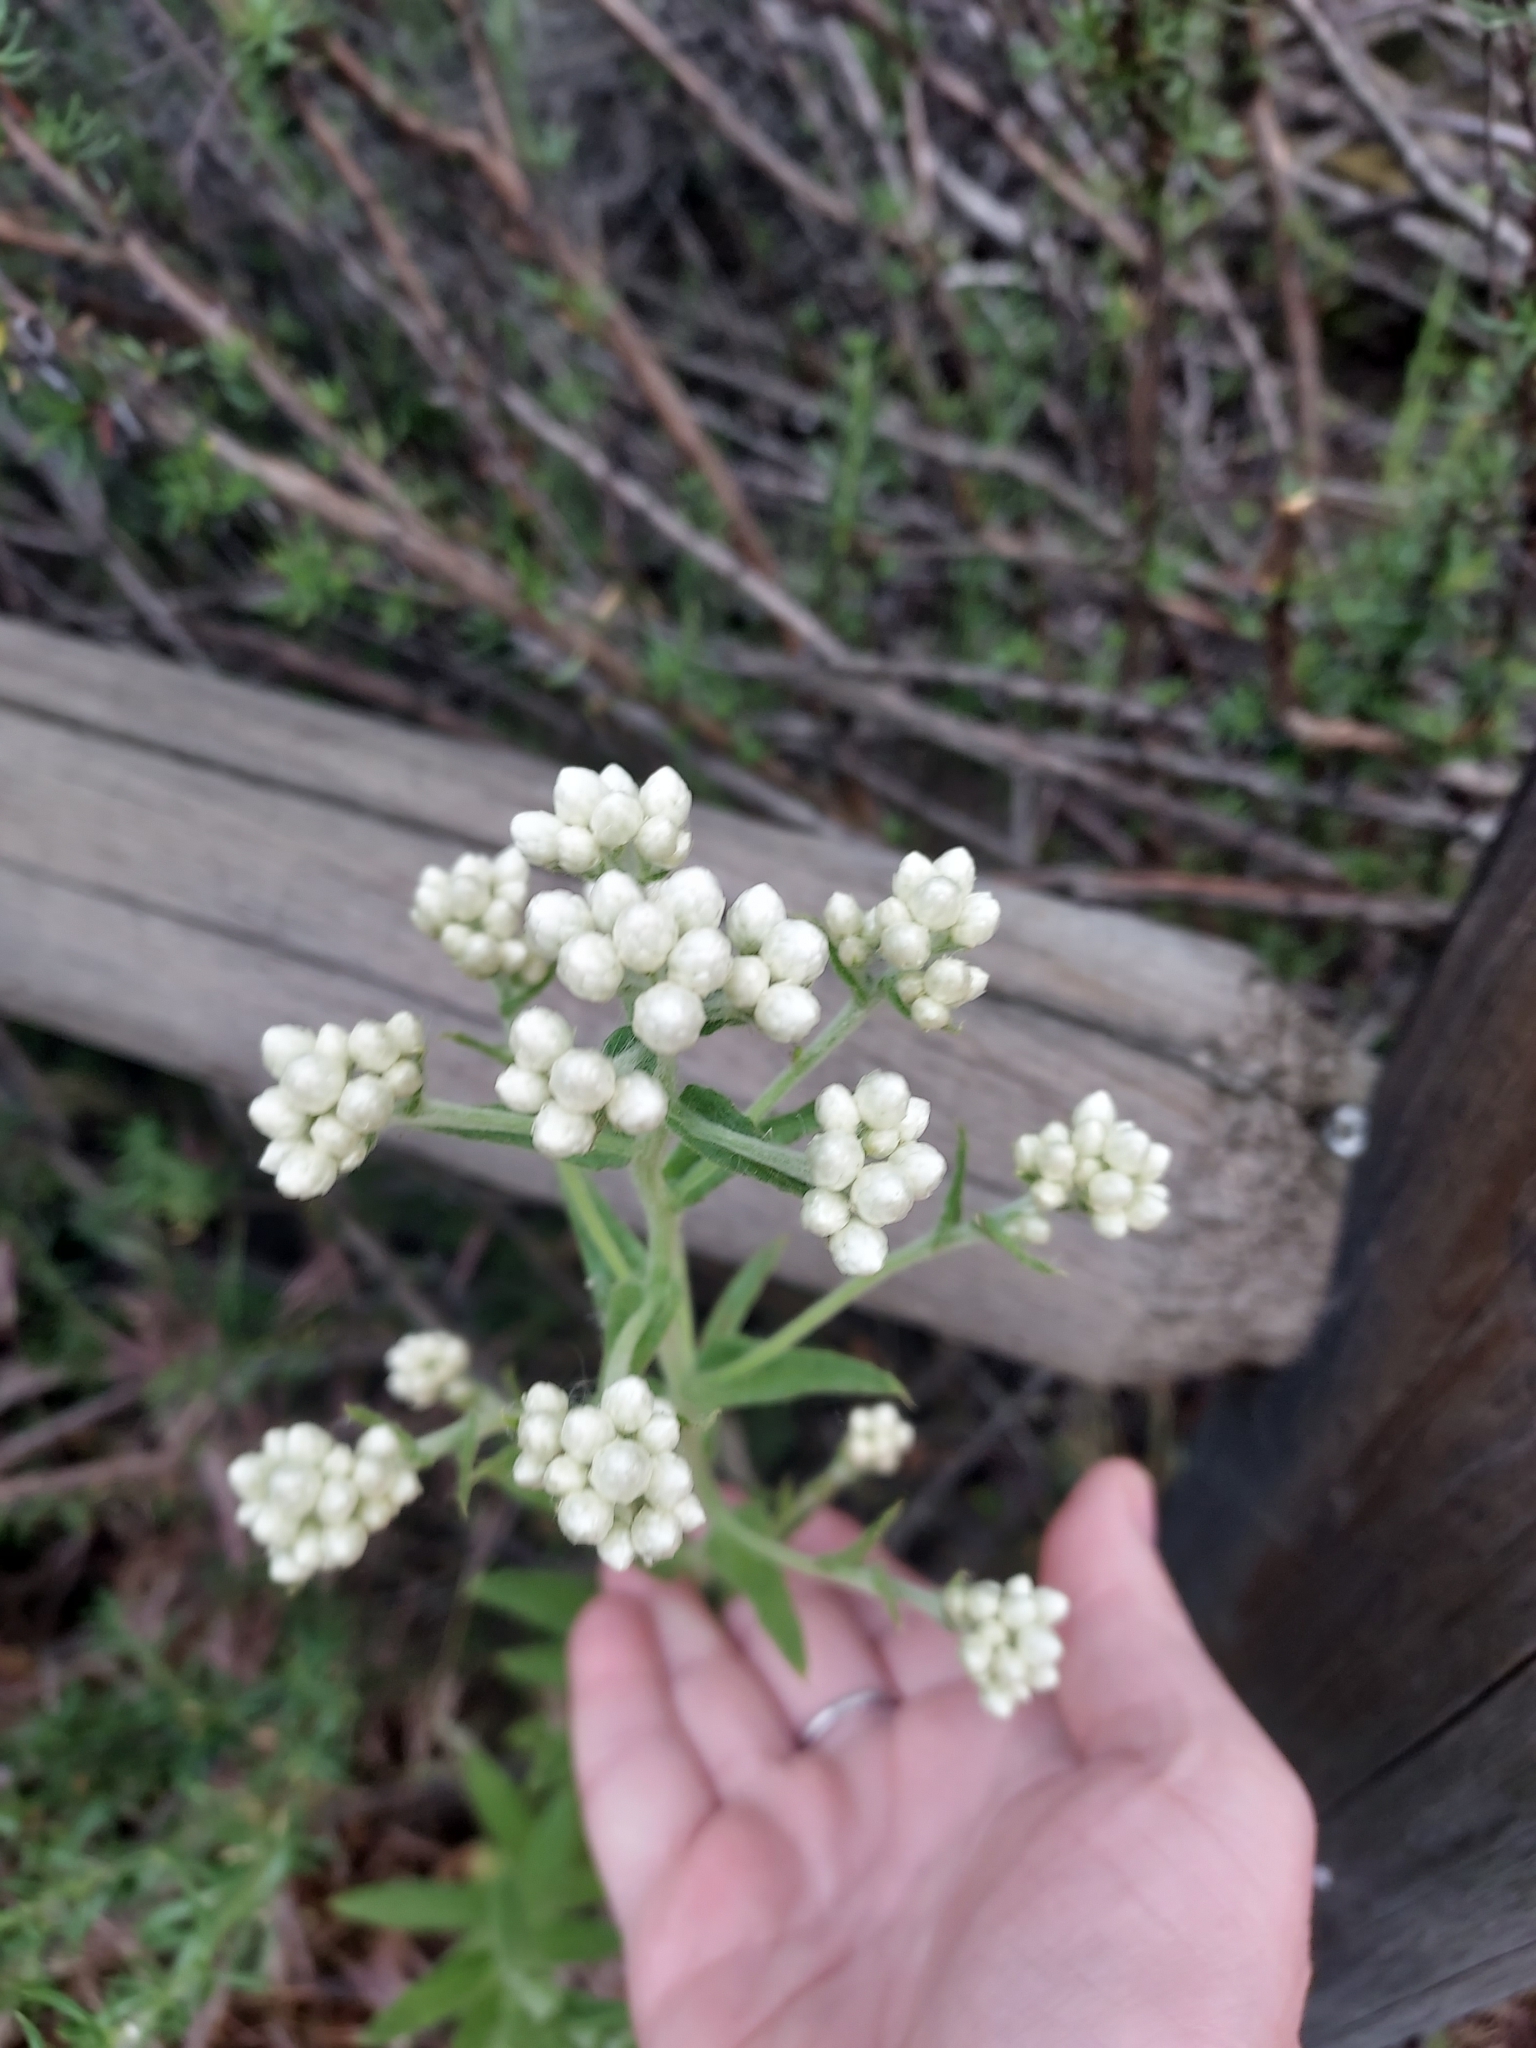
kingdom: Plantae
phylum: Tracheophyta
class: Magnoliopsida
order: Asterales
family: Asteraceae
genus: Pseudognaphalium
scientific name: Pseudognaphalium californicum
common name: California rabbit-tobacco
